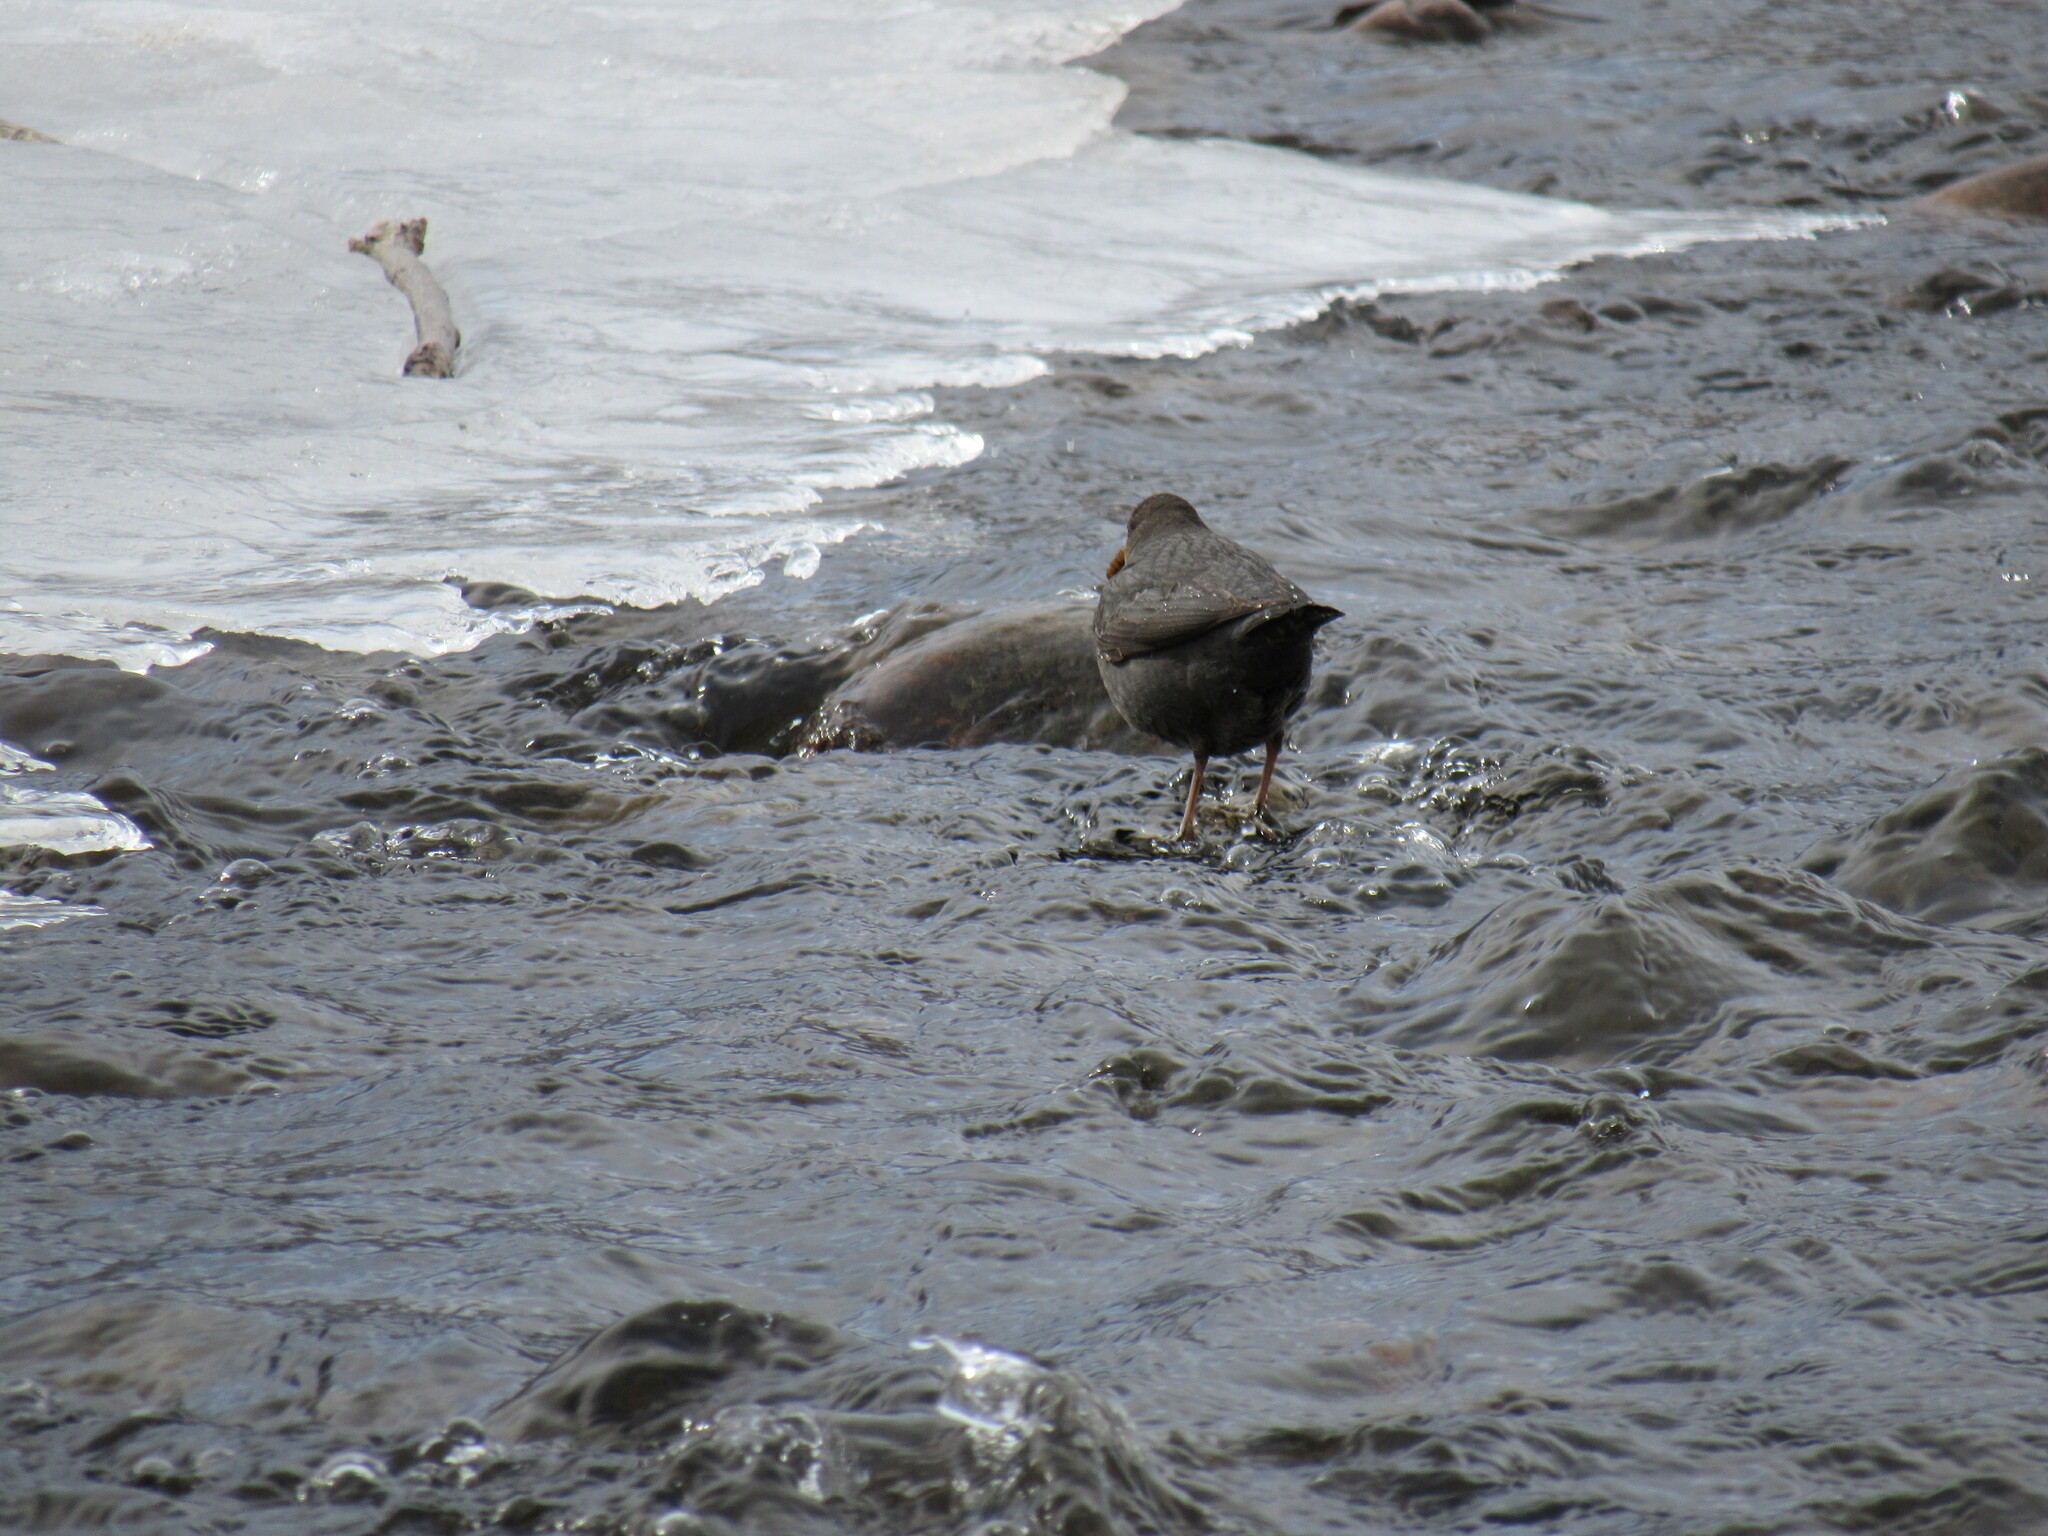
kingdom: Animalia
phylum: Chordata
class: Aves
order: Passeriformes
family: Cinclidae
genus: Cinclus
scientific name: Cinclus mexicanus
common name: American dipper
